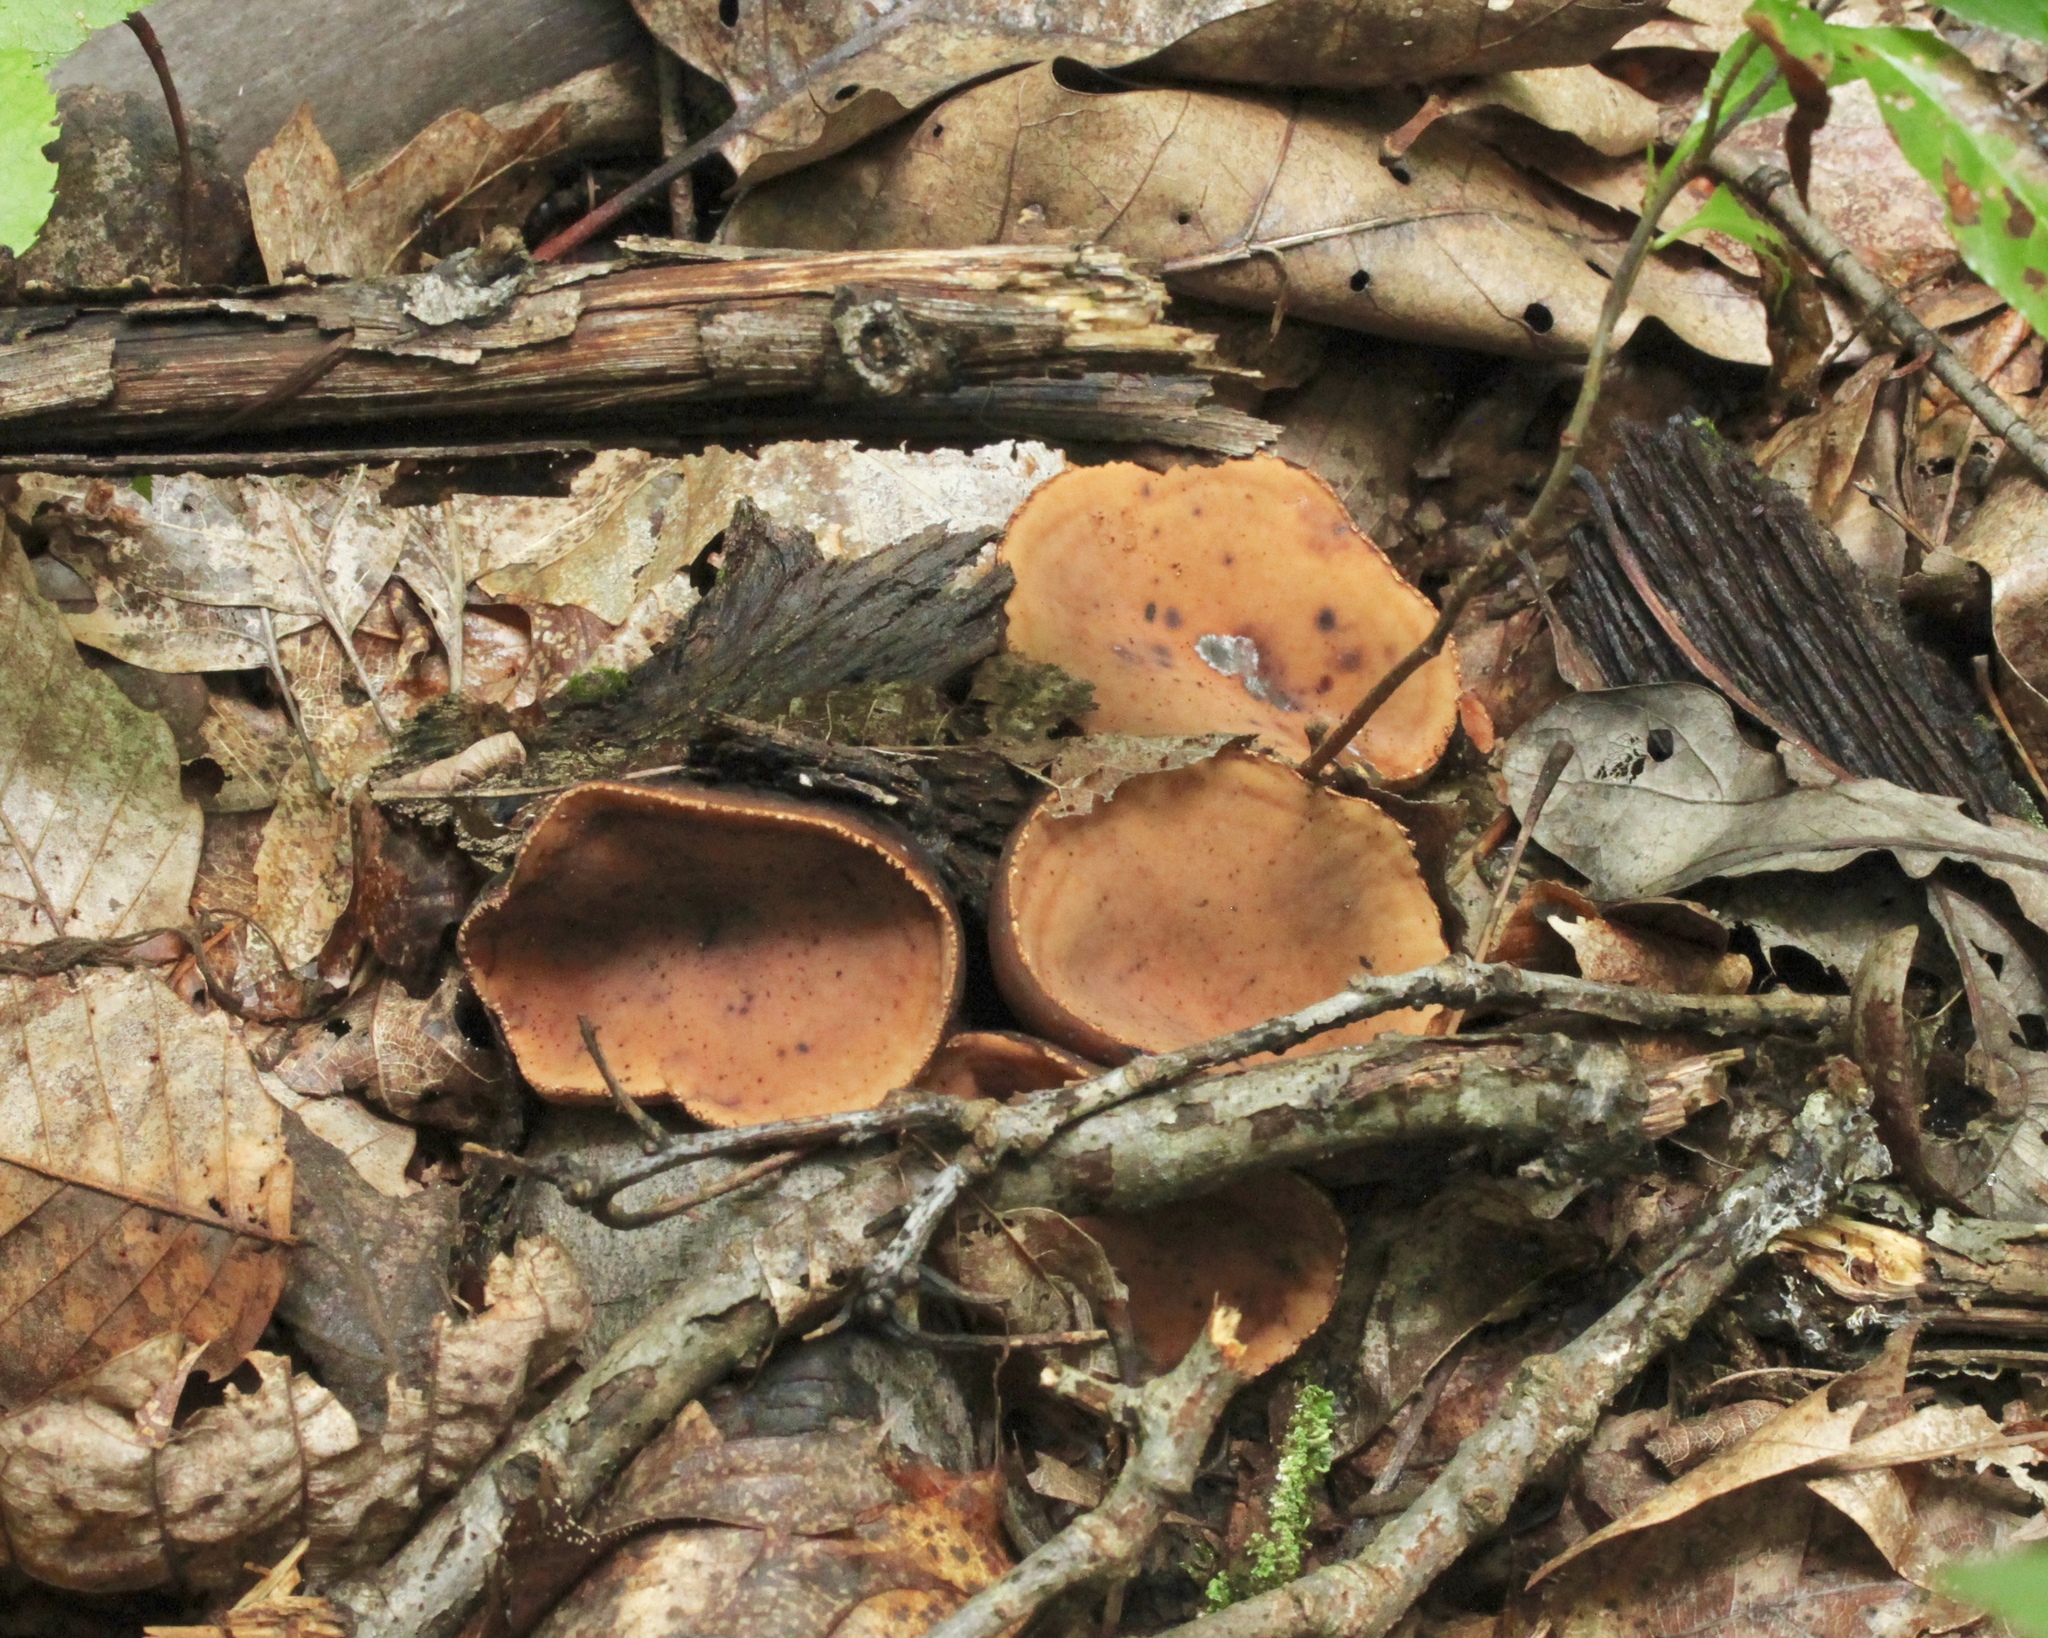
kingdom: Fungi
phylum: Ascomycota
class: Pezizomycetes
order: Pezizales
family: Sarcosomataceae
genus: Galiella
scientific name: Galiella rufa
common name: Hairy rubber cup
